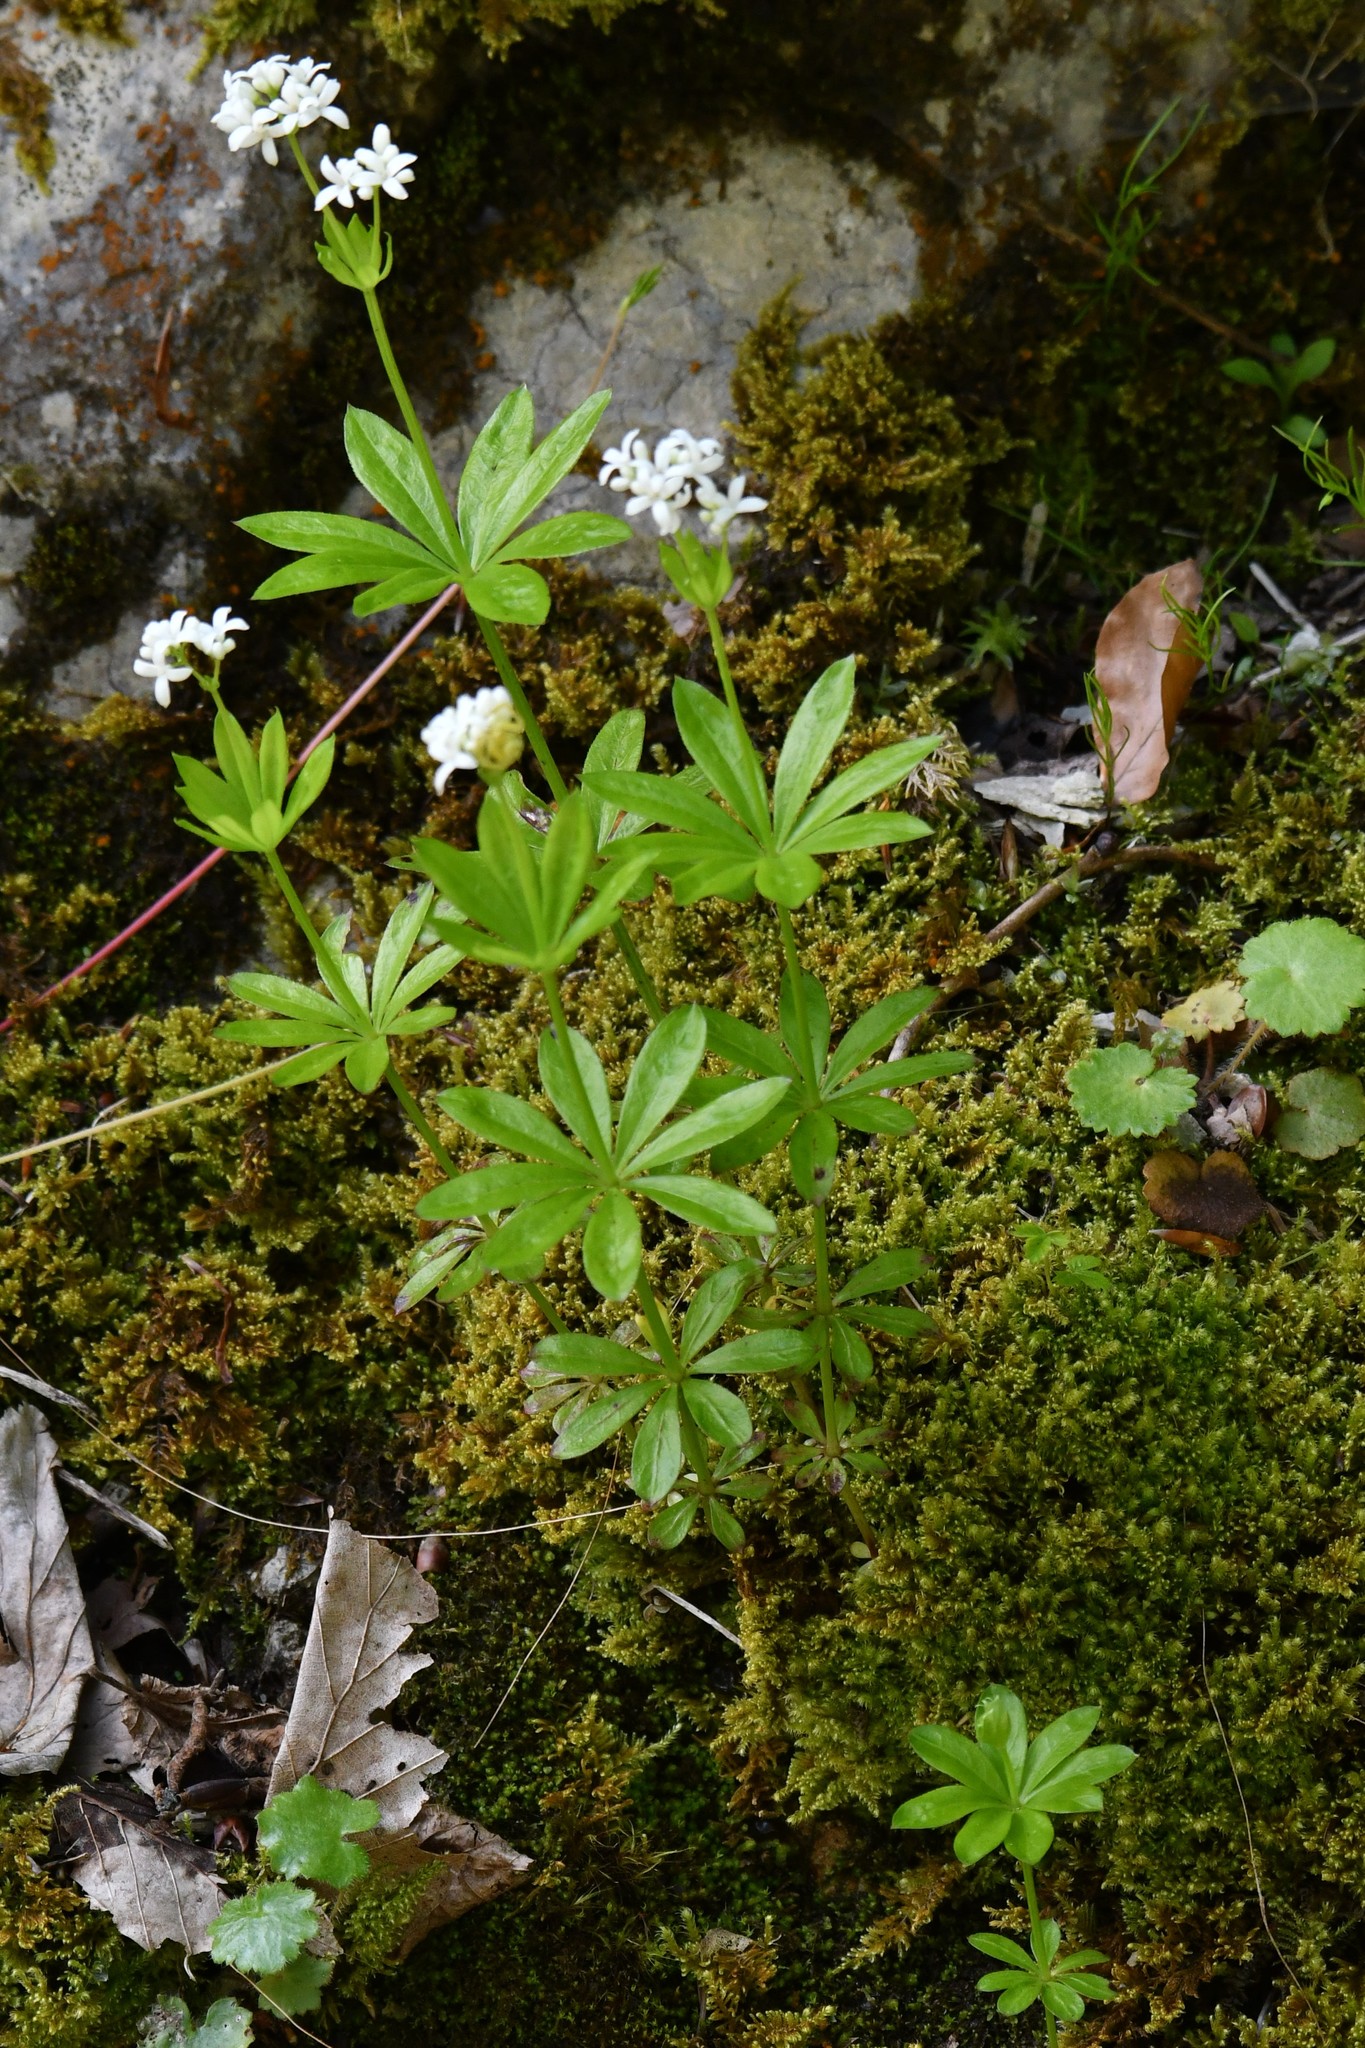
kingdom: Plantae
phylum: Tracheophyta
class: Magnoliopsida
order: Gentianales
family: Rubiaceae
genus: Galium
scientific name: Galium odoratum
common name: Sweet woodruff
